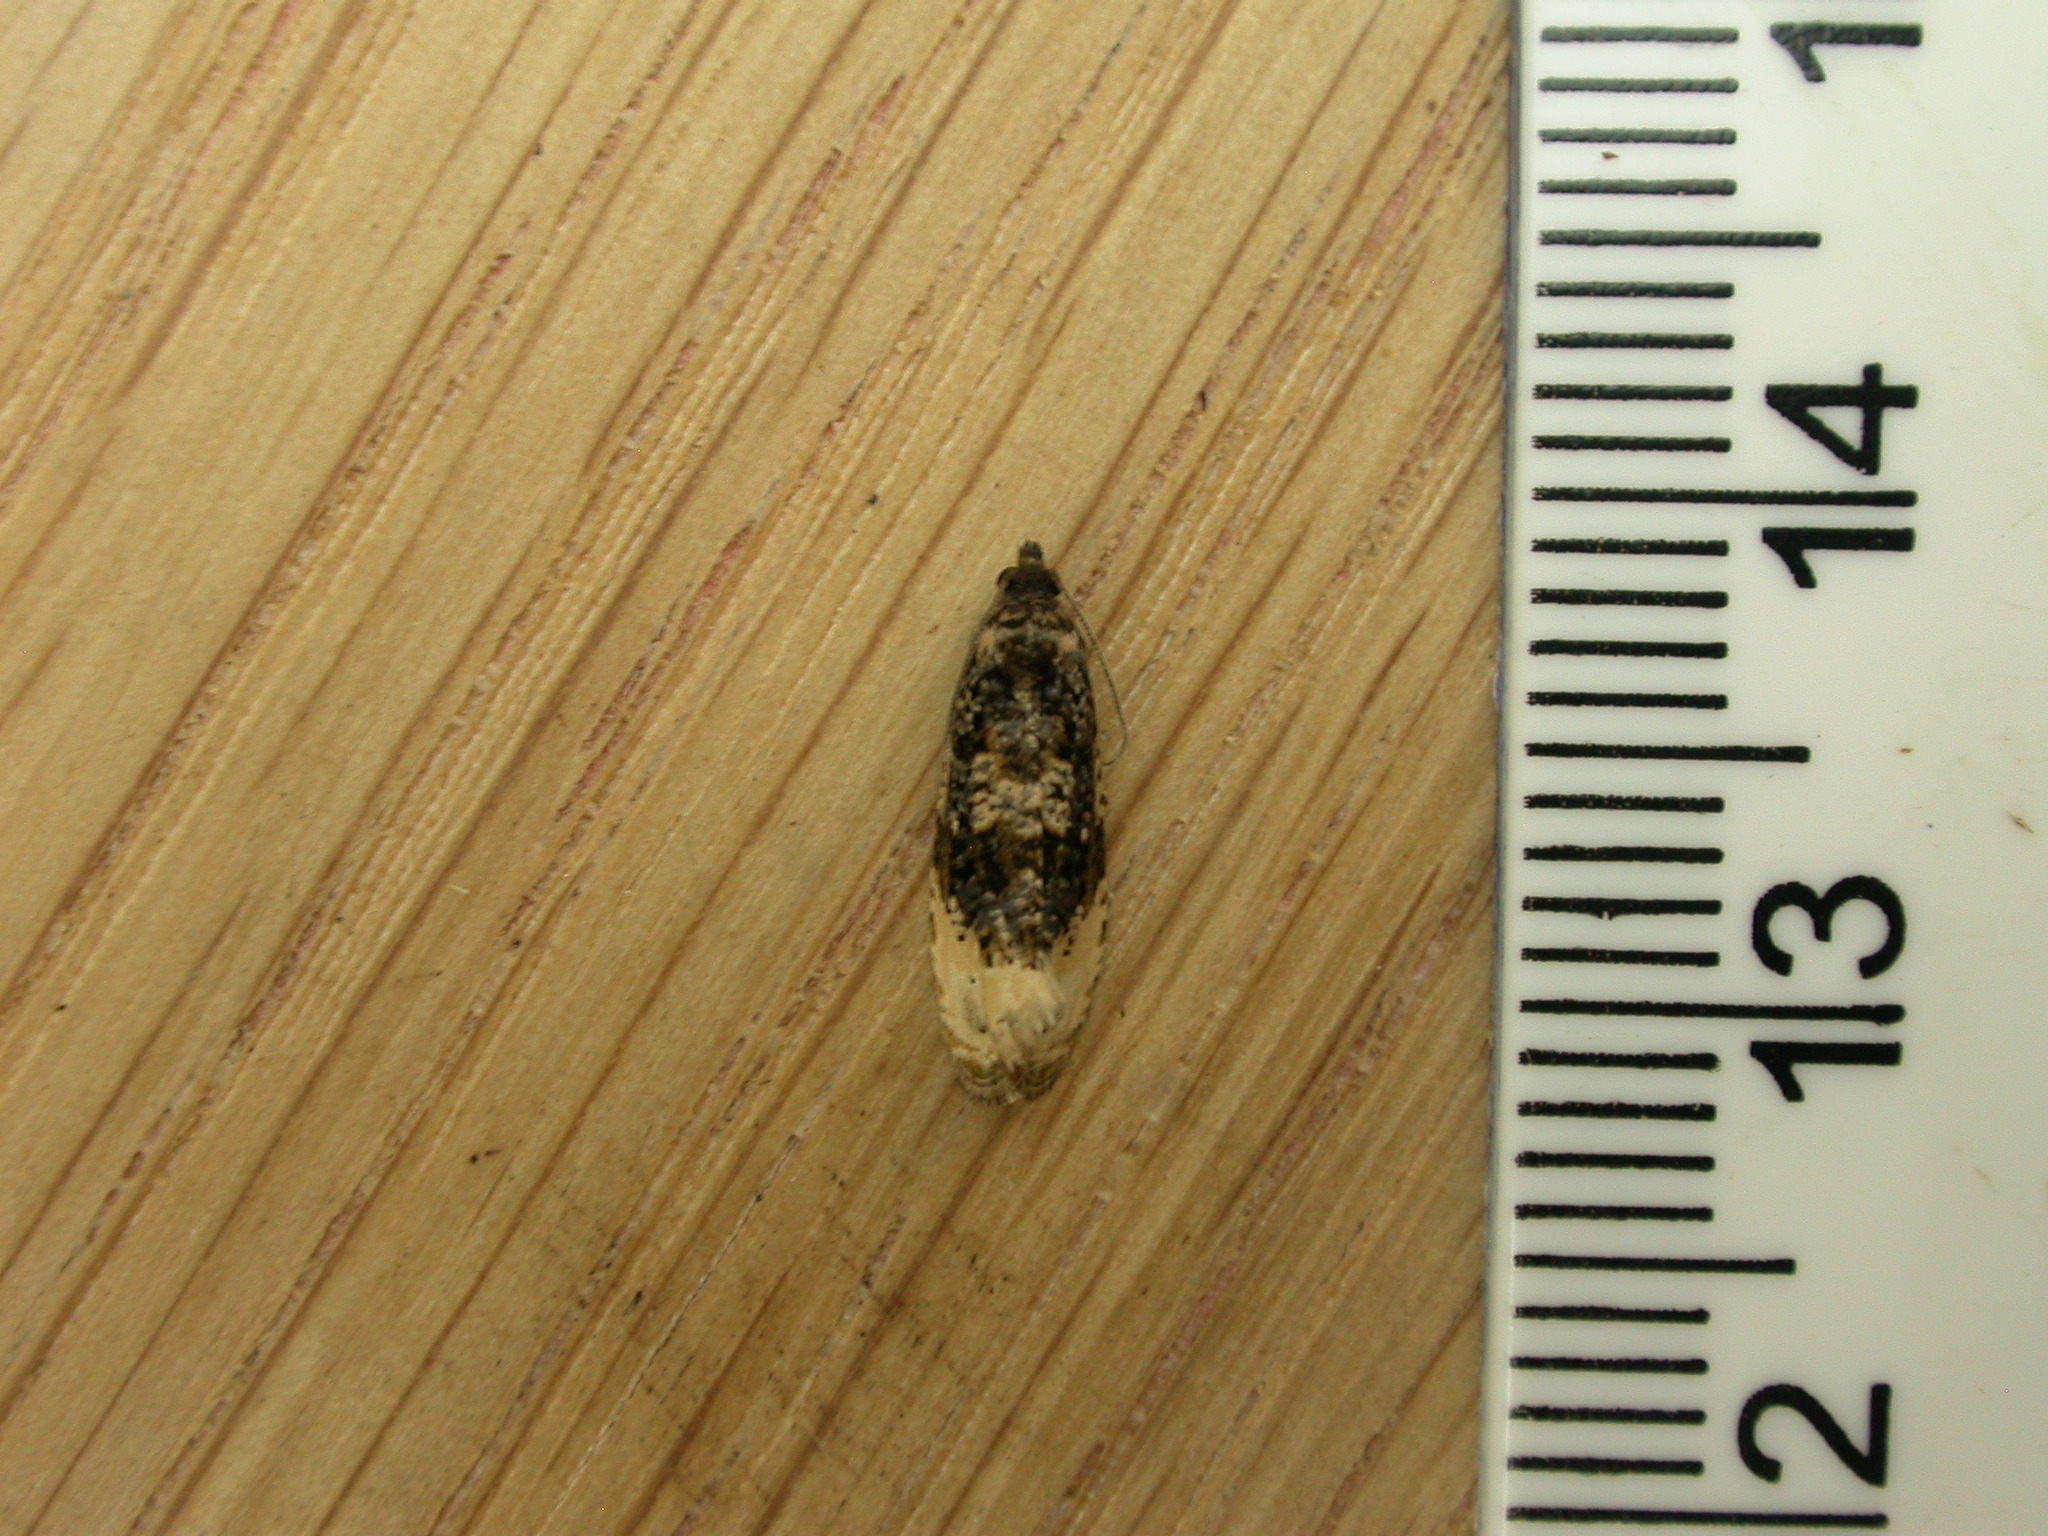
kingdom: Animalia
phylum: Arthropoda
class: Insecta
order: Lepidoptera
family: Tortricidae
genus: Hedya
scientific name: Hedya ochroleucana
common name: Buff-tipped marble
